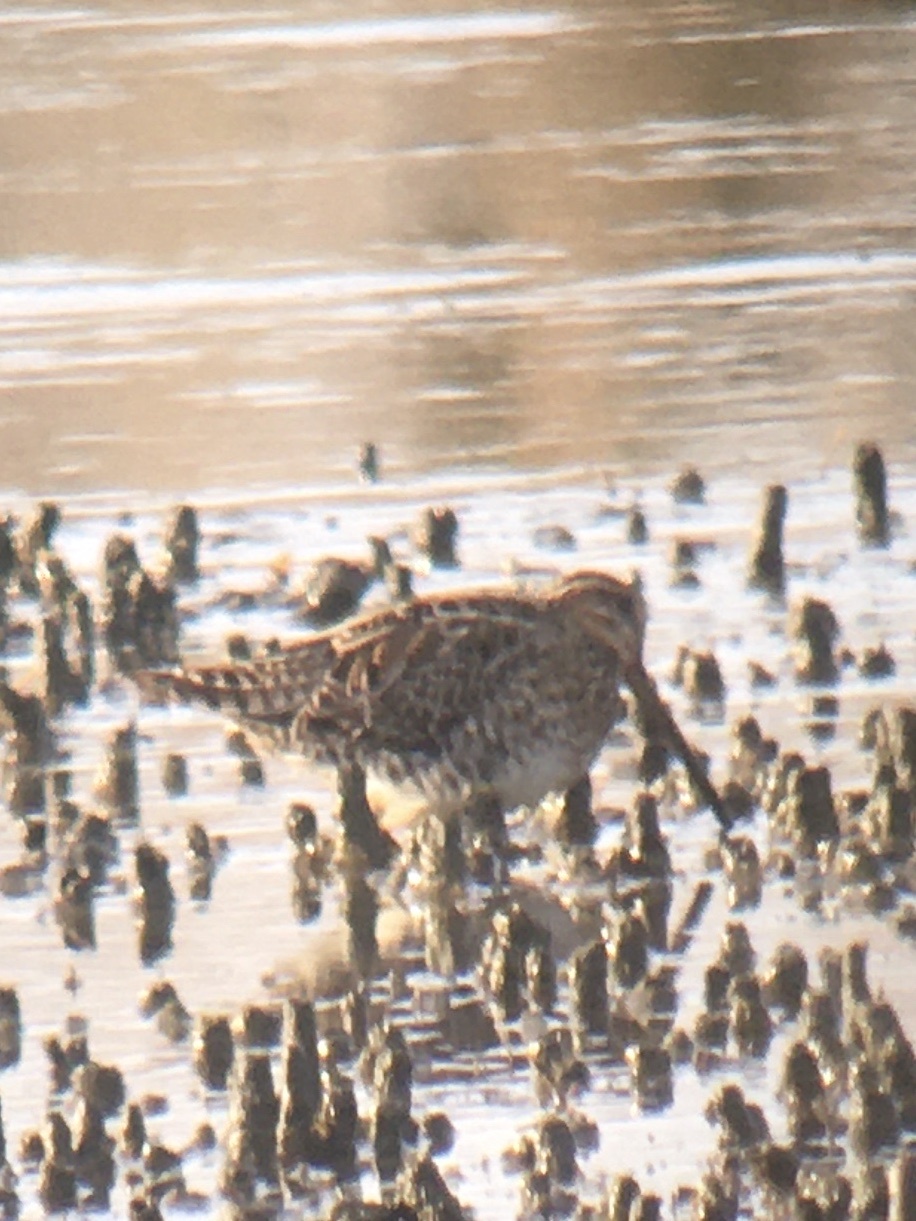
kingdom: Animalia
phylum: Chordata
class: Aves
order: Charadriiformes
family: Scolopacidae
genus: Gallinago
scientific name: Gallinago delicata
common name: Wilson's snipe
